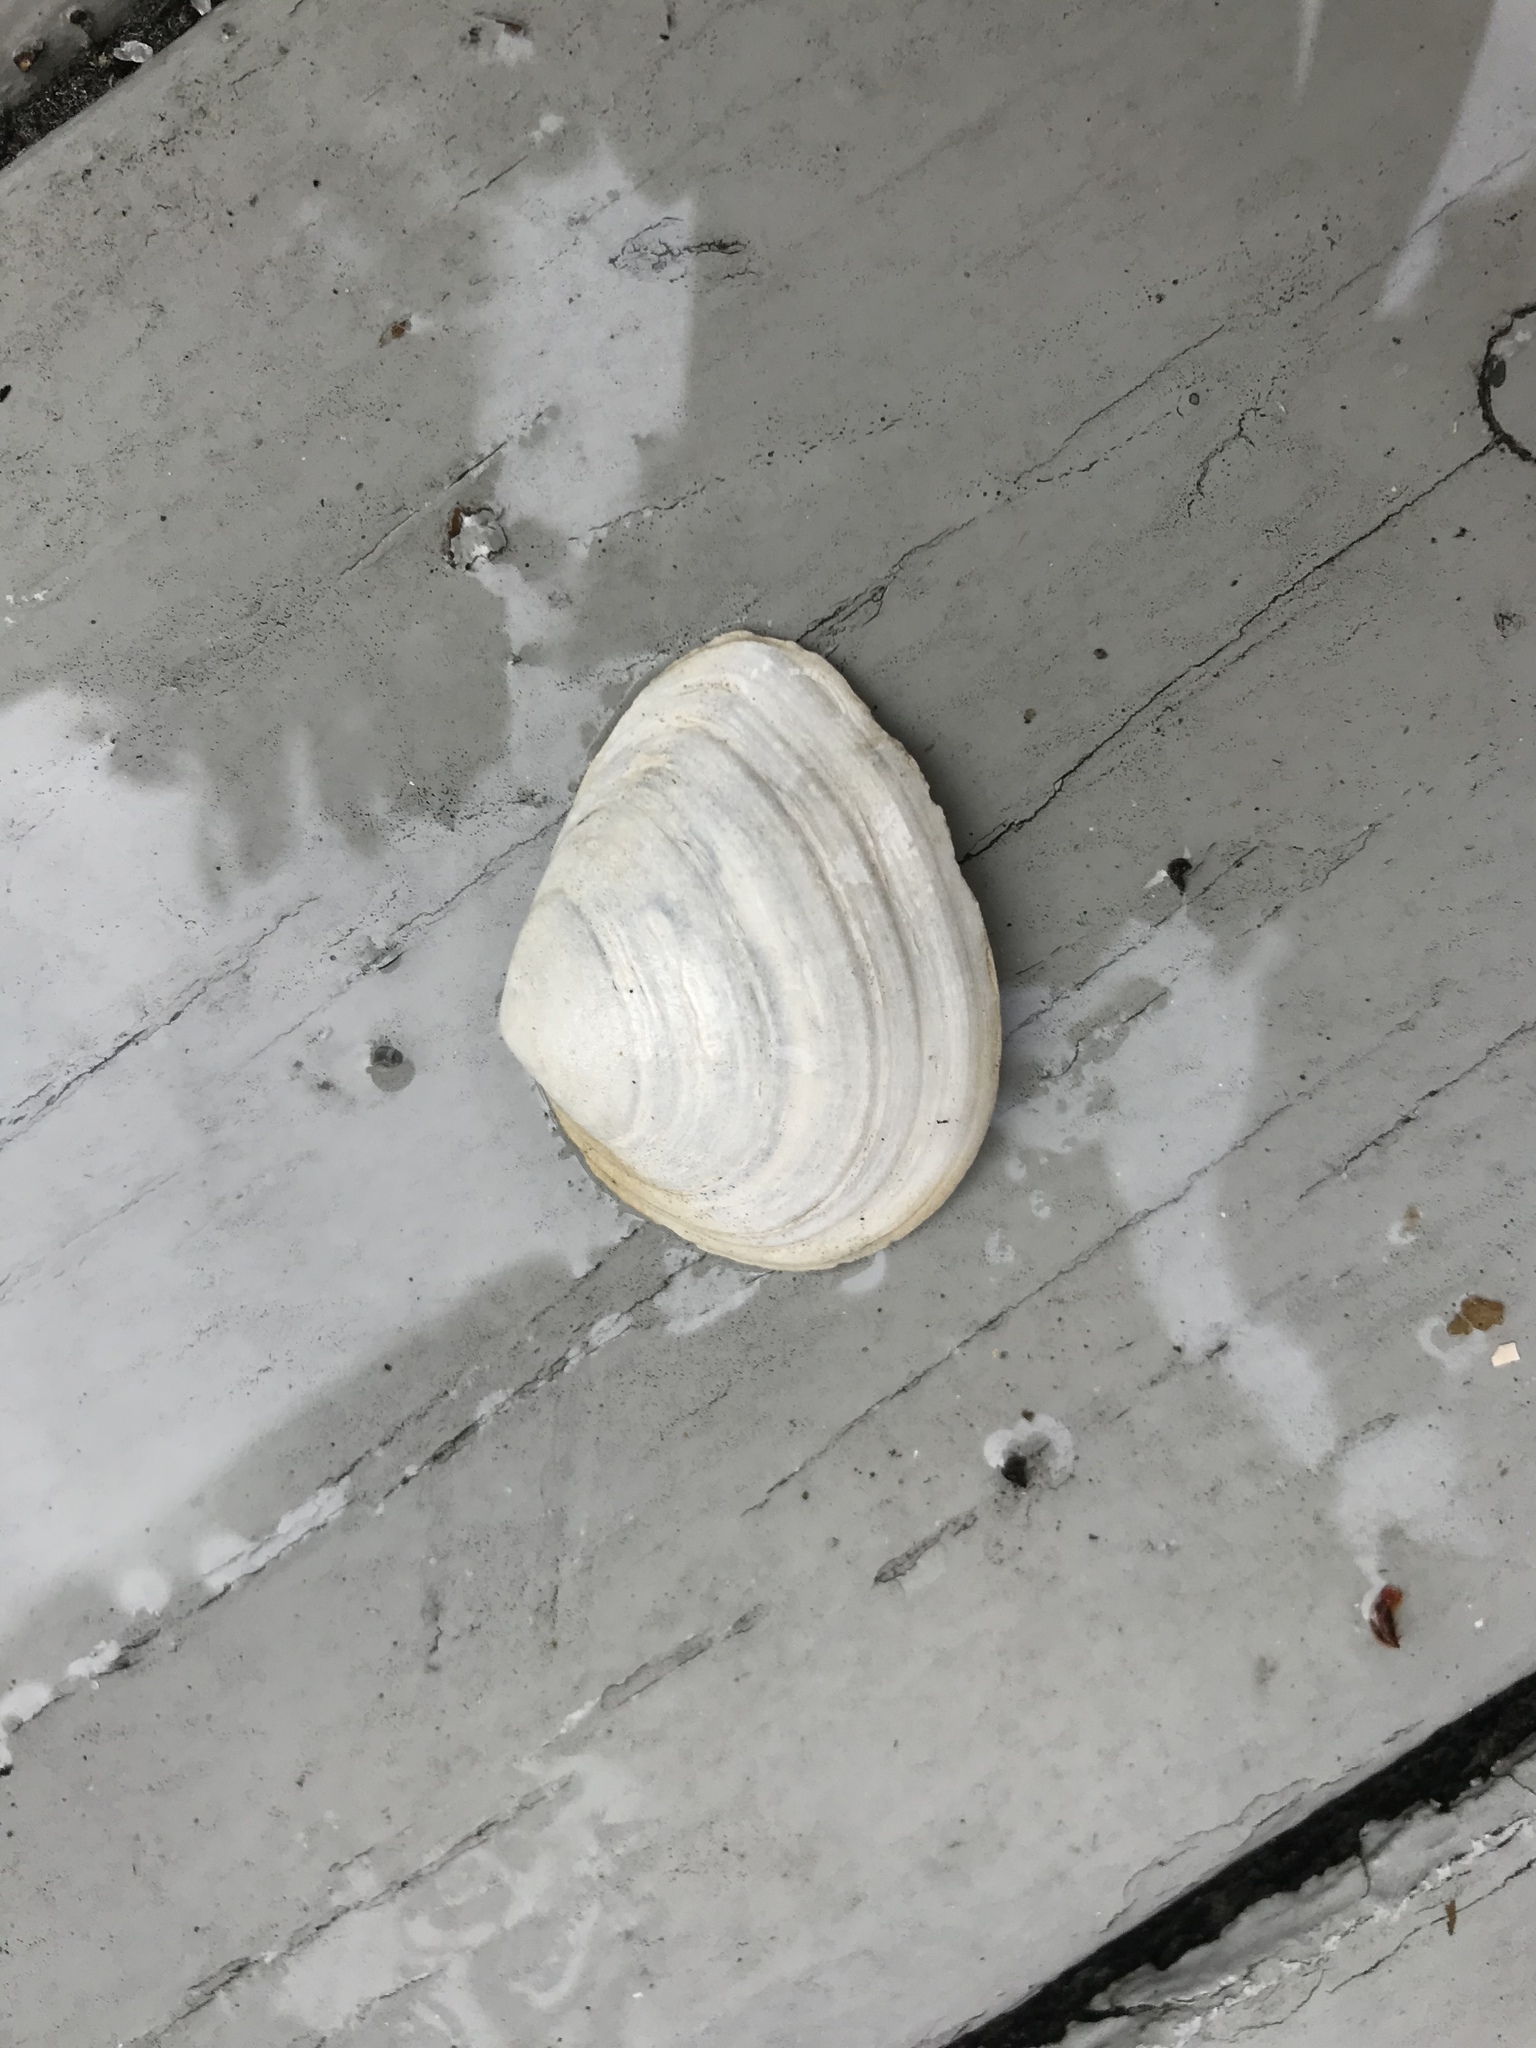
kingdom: Animalia
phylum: Mollusca
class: Bivalvia
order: Cardiida
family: Tellinidae
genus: Macoma
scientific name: Macoma nasuta
